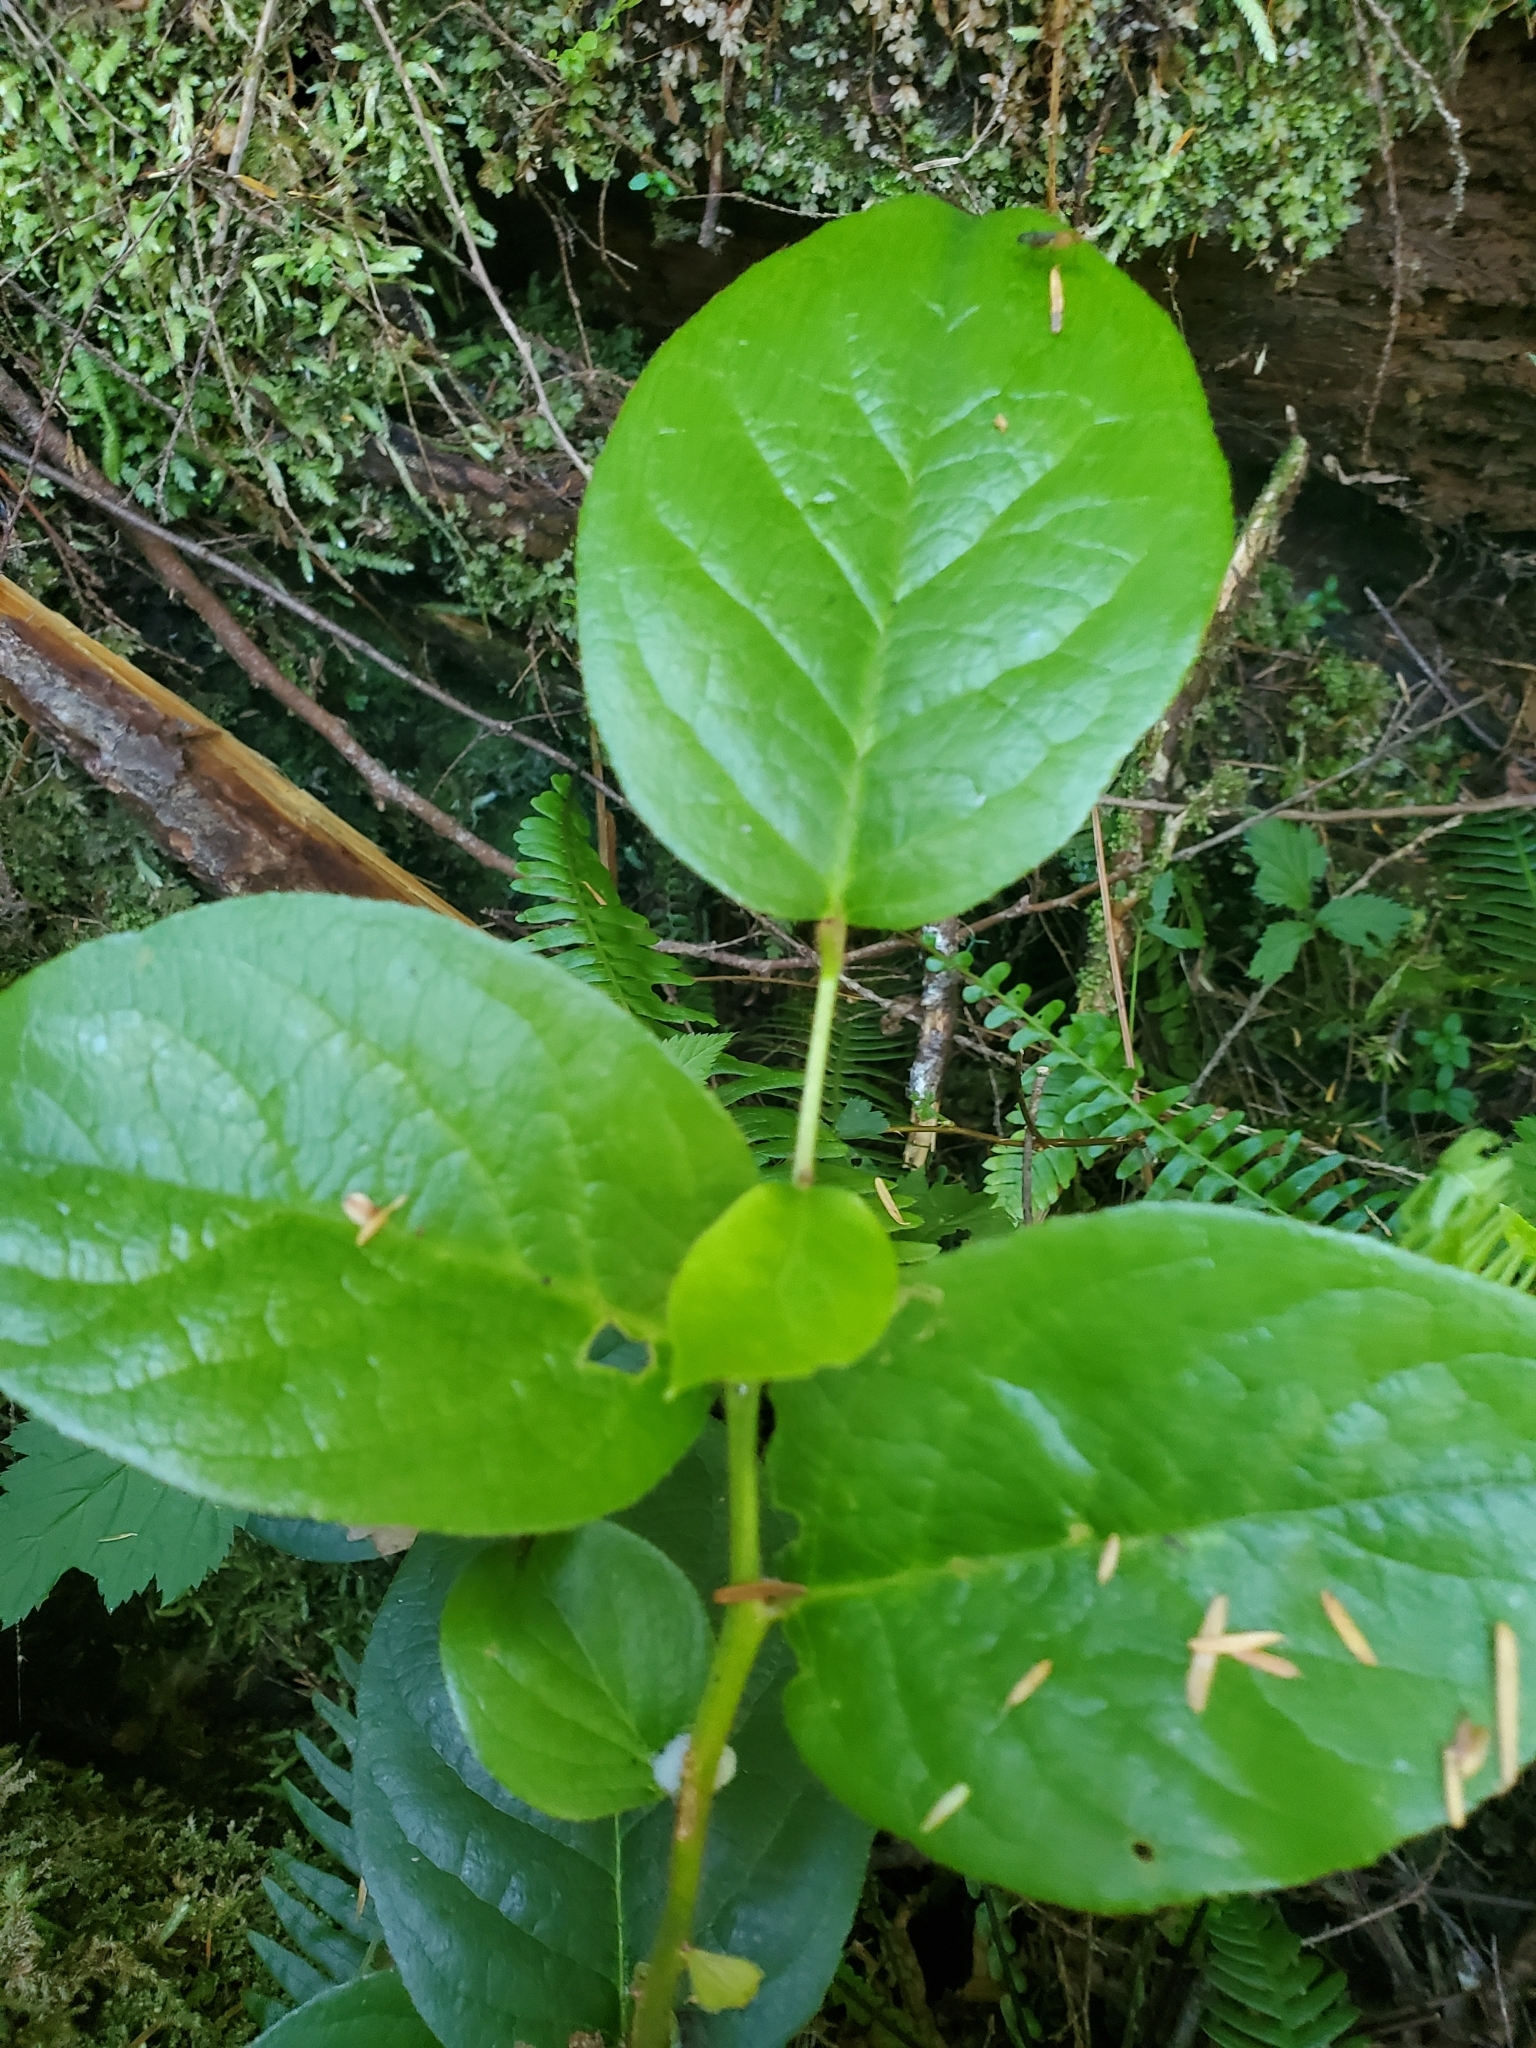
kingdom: Plantae
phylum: Tracheophyta
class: Magnoliopsida
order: Ericales
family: Ericaceae
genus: Gaultheria
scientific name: Gaultheria shallon
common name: Shallon
